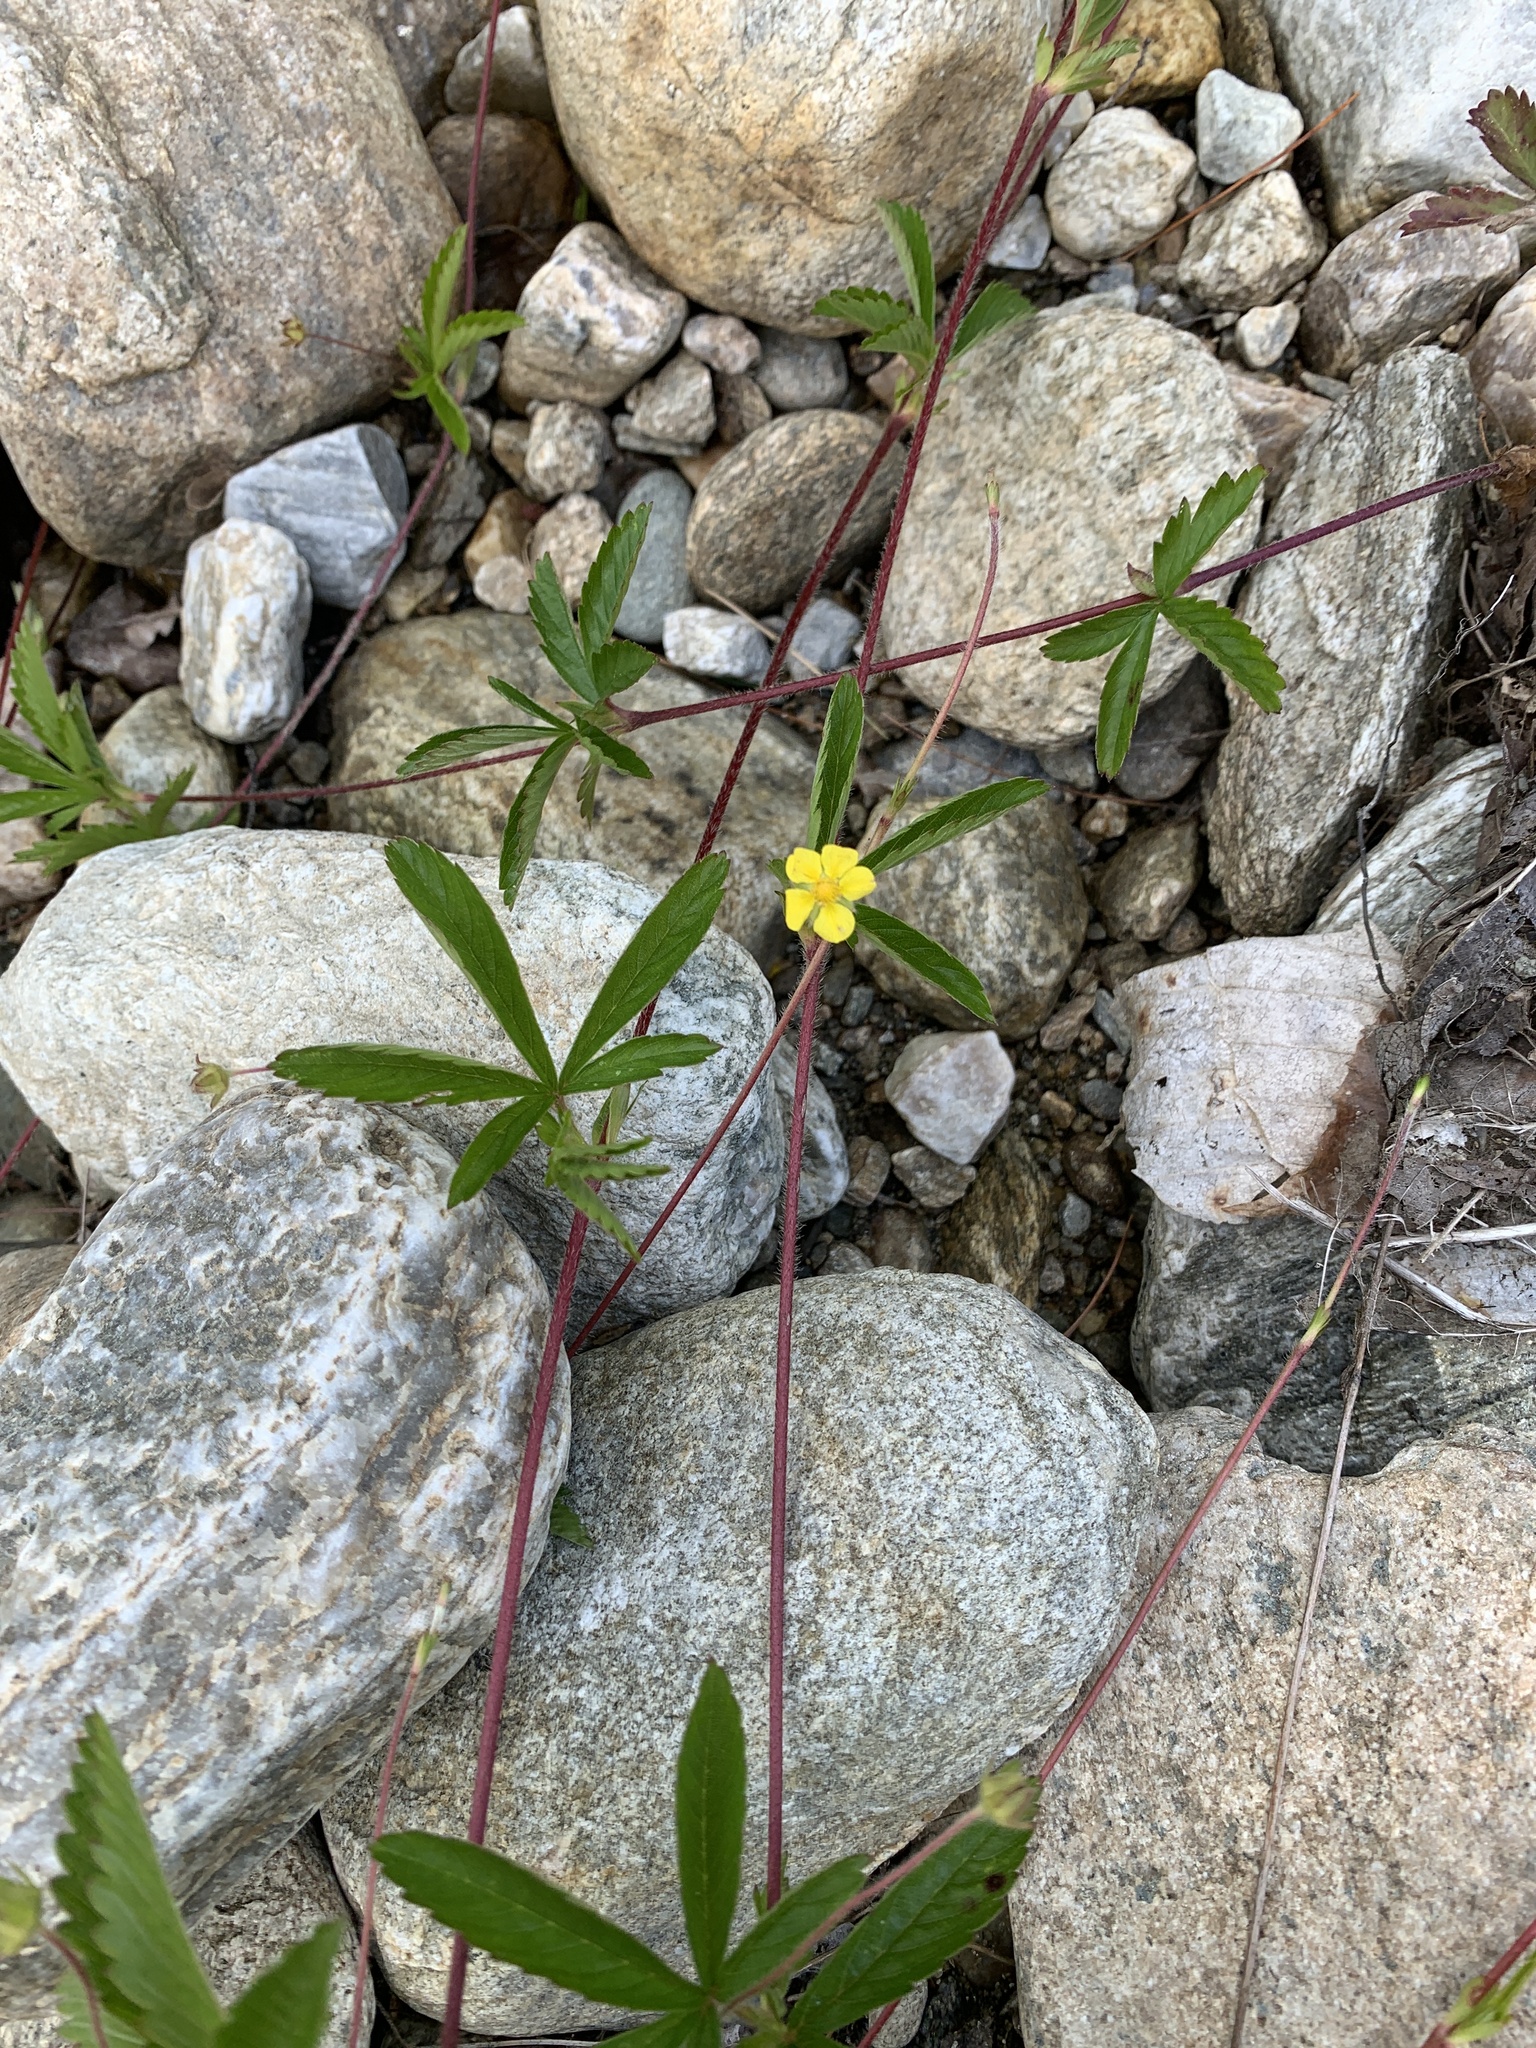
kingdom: Plantae
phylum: Tracheophyta
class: Magnoliopsida
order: Rosales
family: Rosaceae
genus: Potentilla
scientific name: Potentilla simplex
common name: Old field cinquefoil
